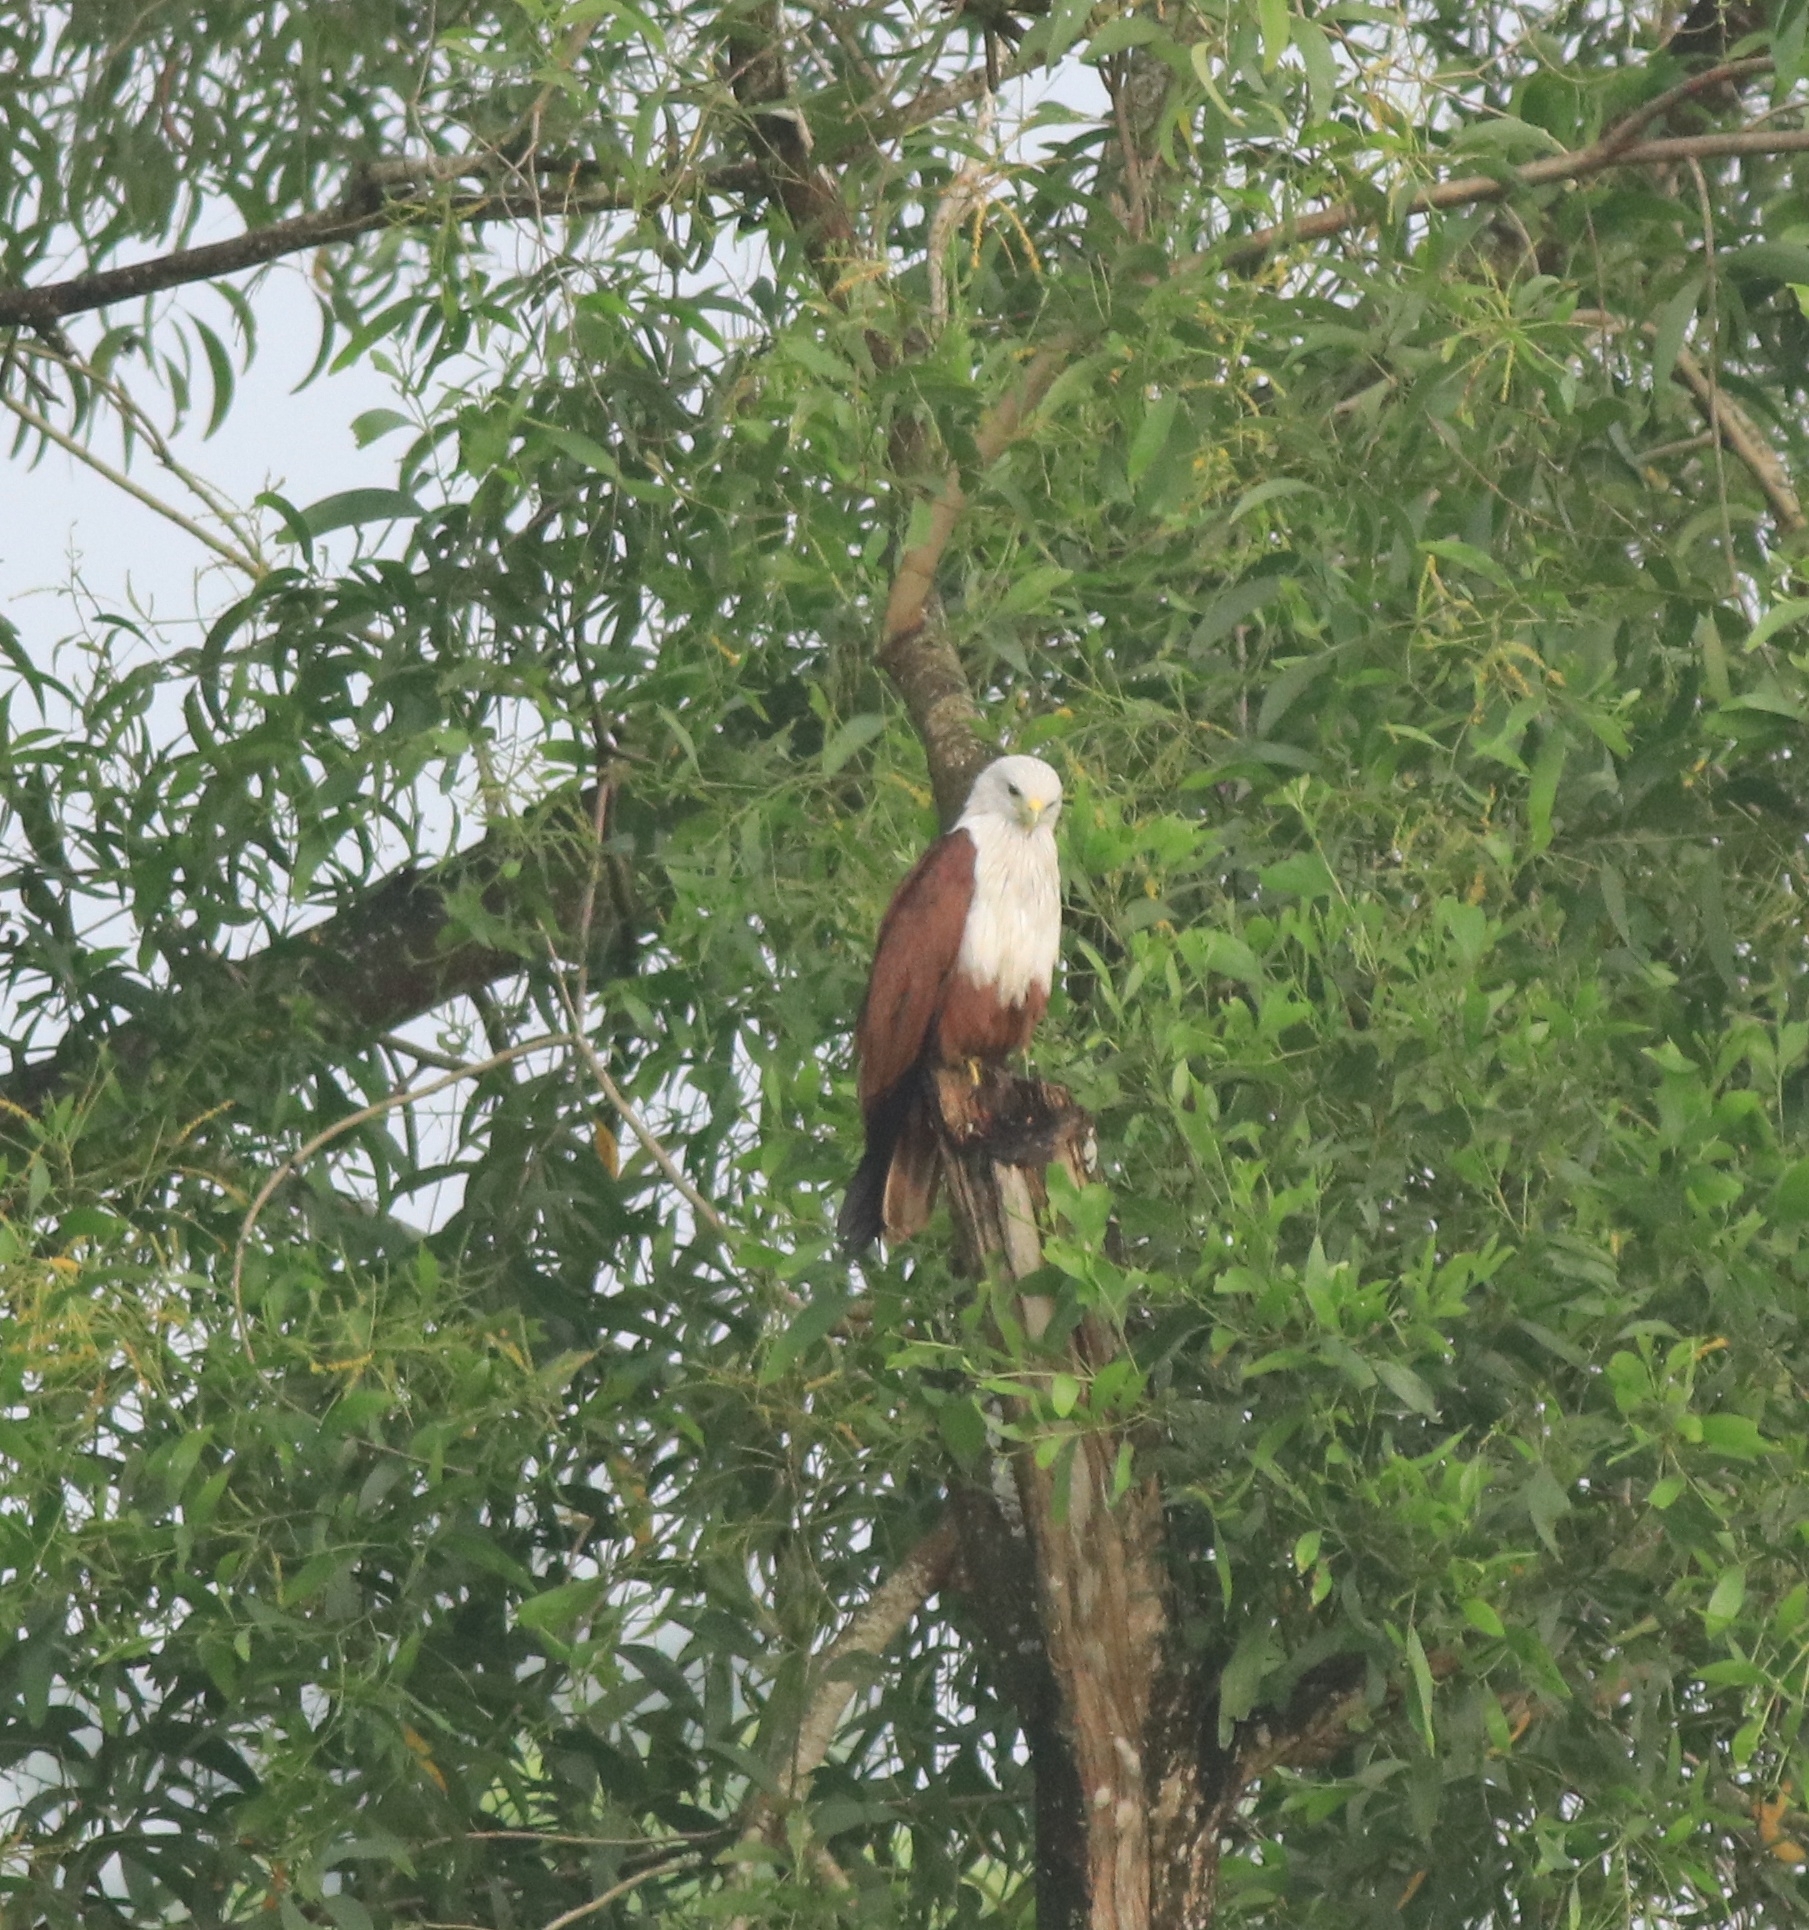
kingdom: Animalia
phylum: Chordata
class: Aves
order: Accipitriformes
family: Accipitridae
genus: Haliastur
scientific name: Haliastur indus
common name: Brahminy kite
